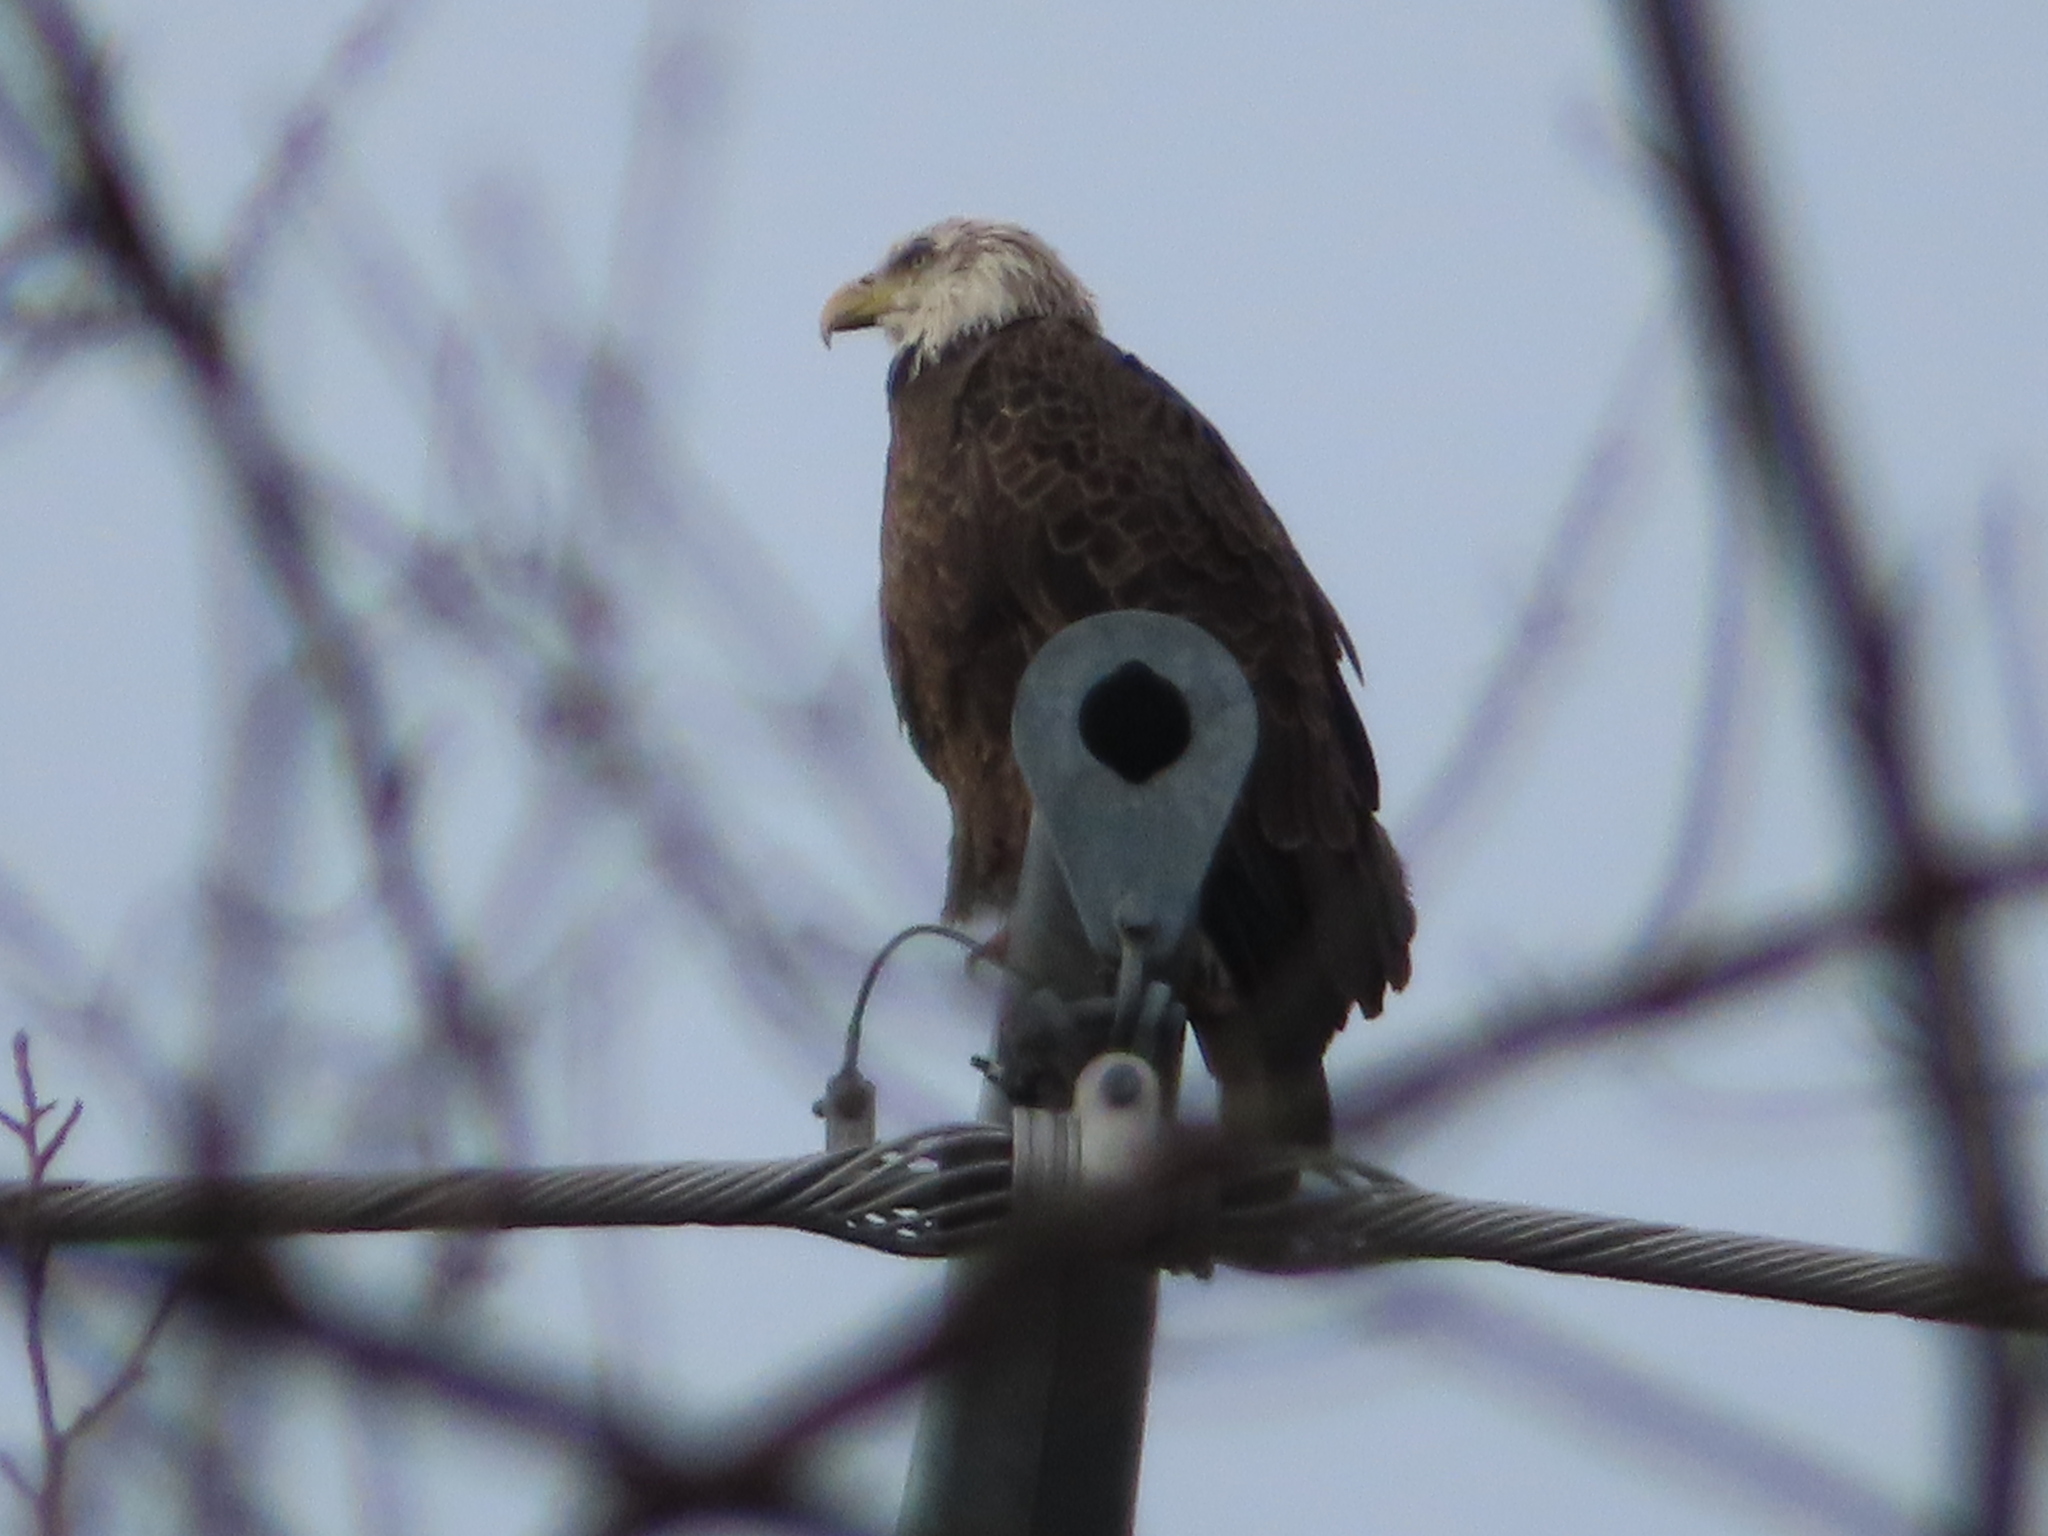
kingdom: Animalia
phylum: Chordata
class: Aves
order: Accipitriformes
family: Accipitridae
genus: Haliaeetus
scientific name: Haliaeetus leucocephalus
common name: Bald eagle
